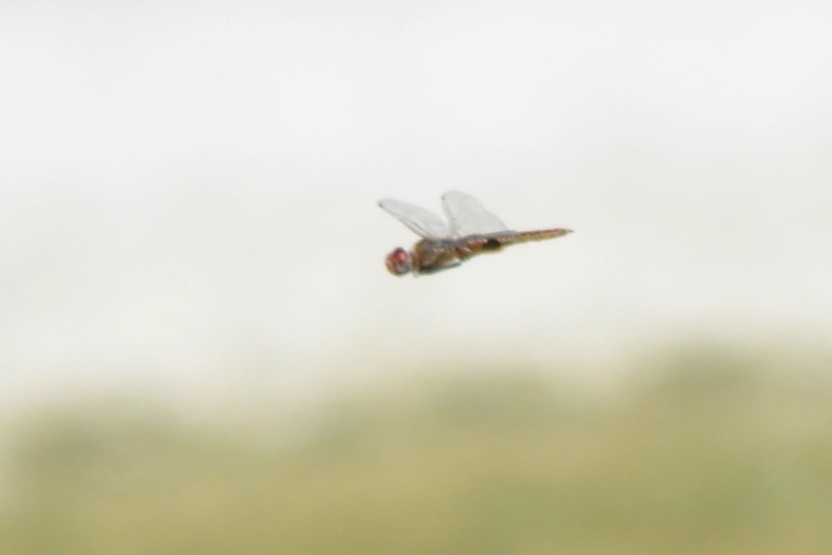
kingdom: Animalia
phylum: Arthropoda
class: Insecta
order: Odonata
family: Libellulidae
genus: Pantala
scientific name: Pantala hymenaea
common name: Spot-winged glider
